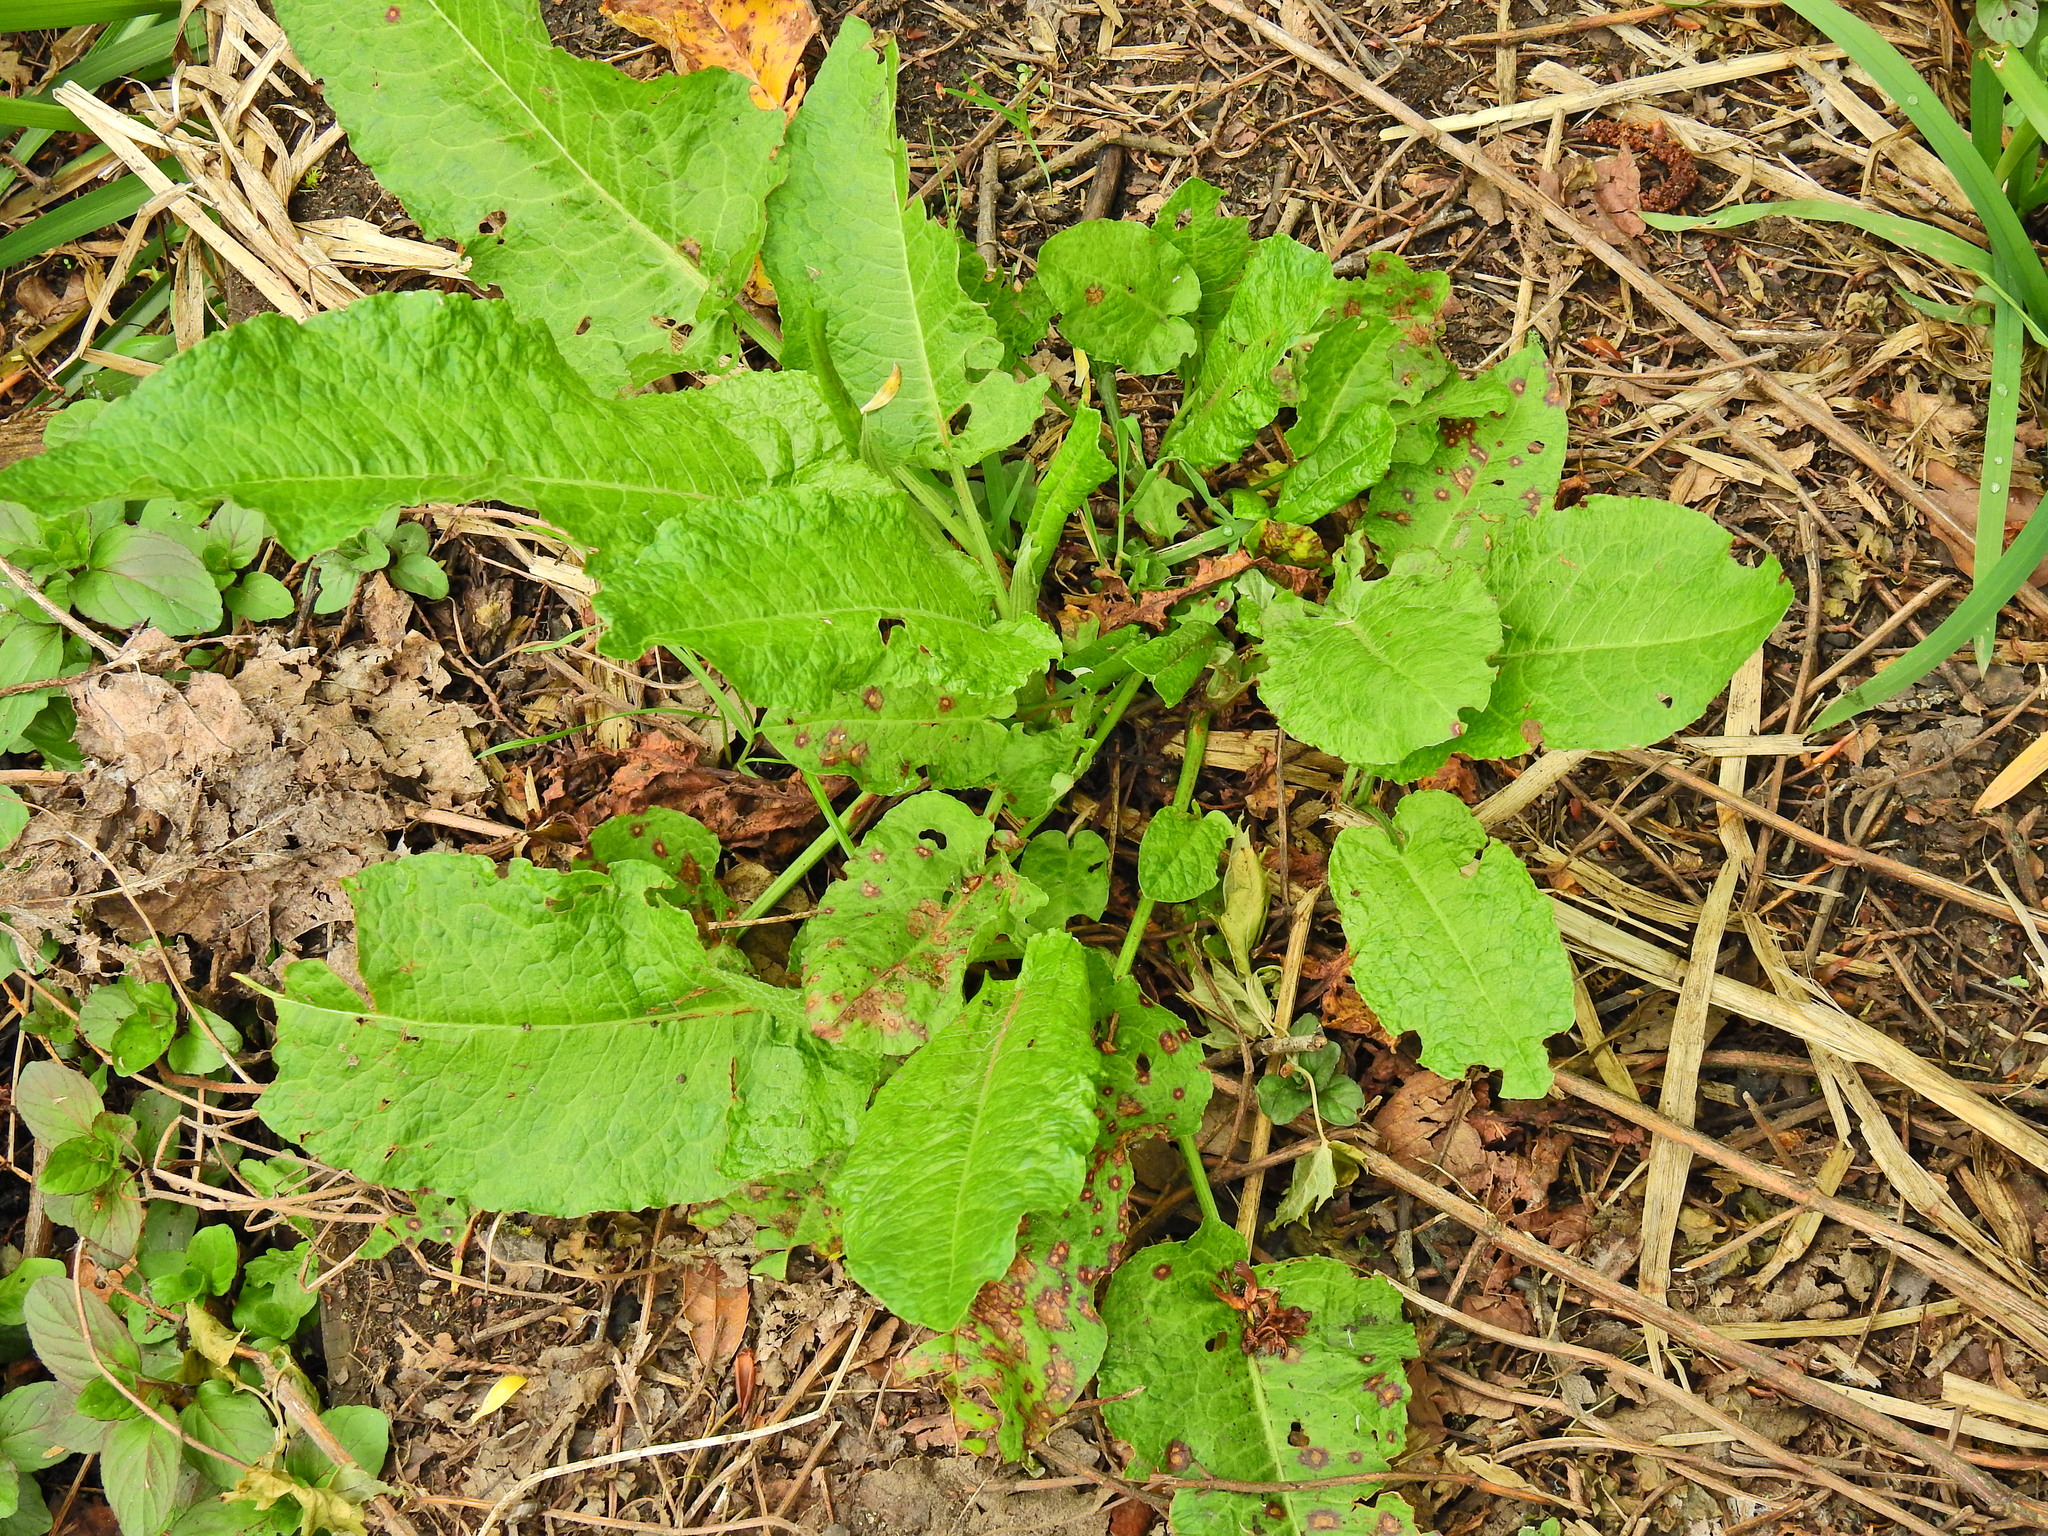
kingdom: Plantae
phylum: Tracheophyta
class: Magnoliopsida
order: Caryophyllales
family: Polygonaceae
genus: Rumex
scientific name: Rumex obtusifolius
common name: Bitter dock
